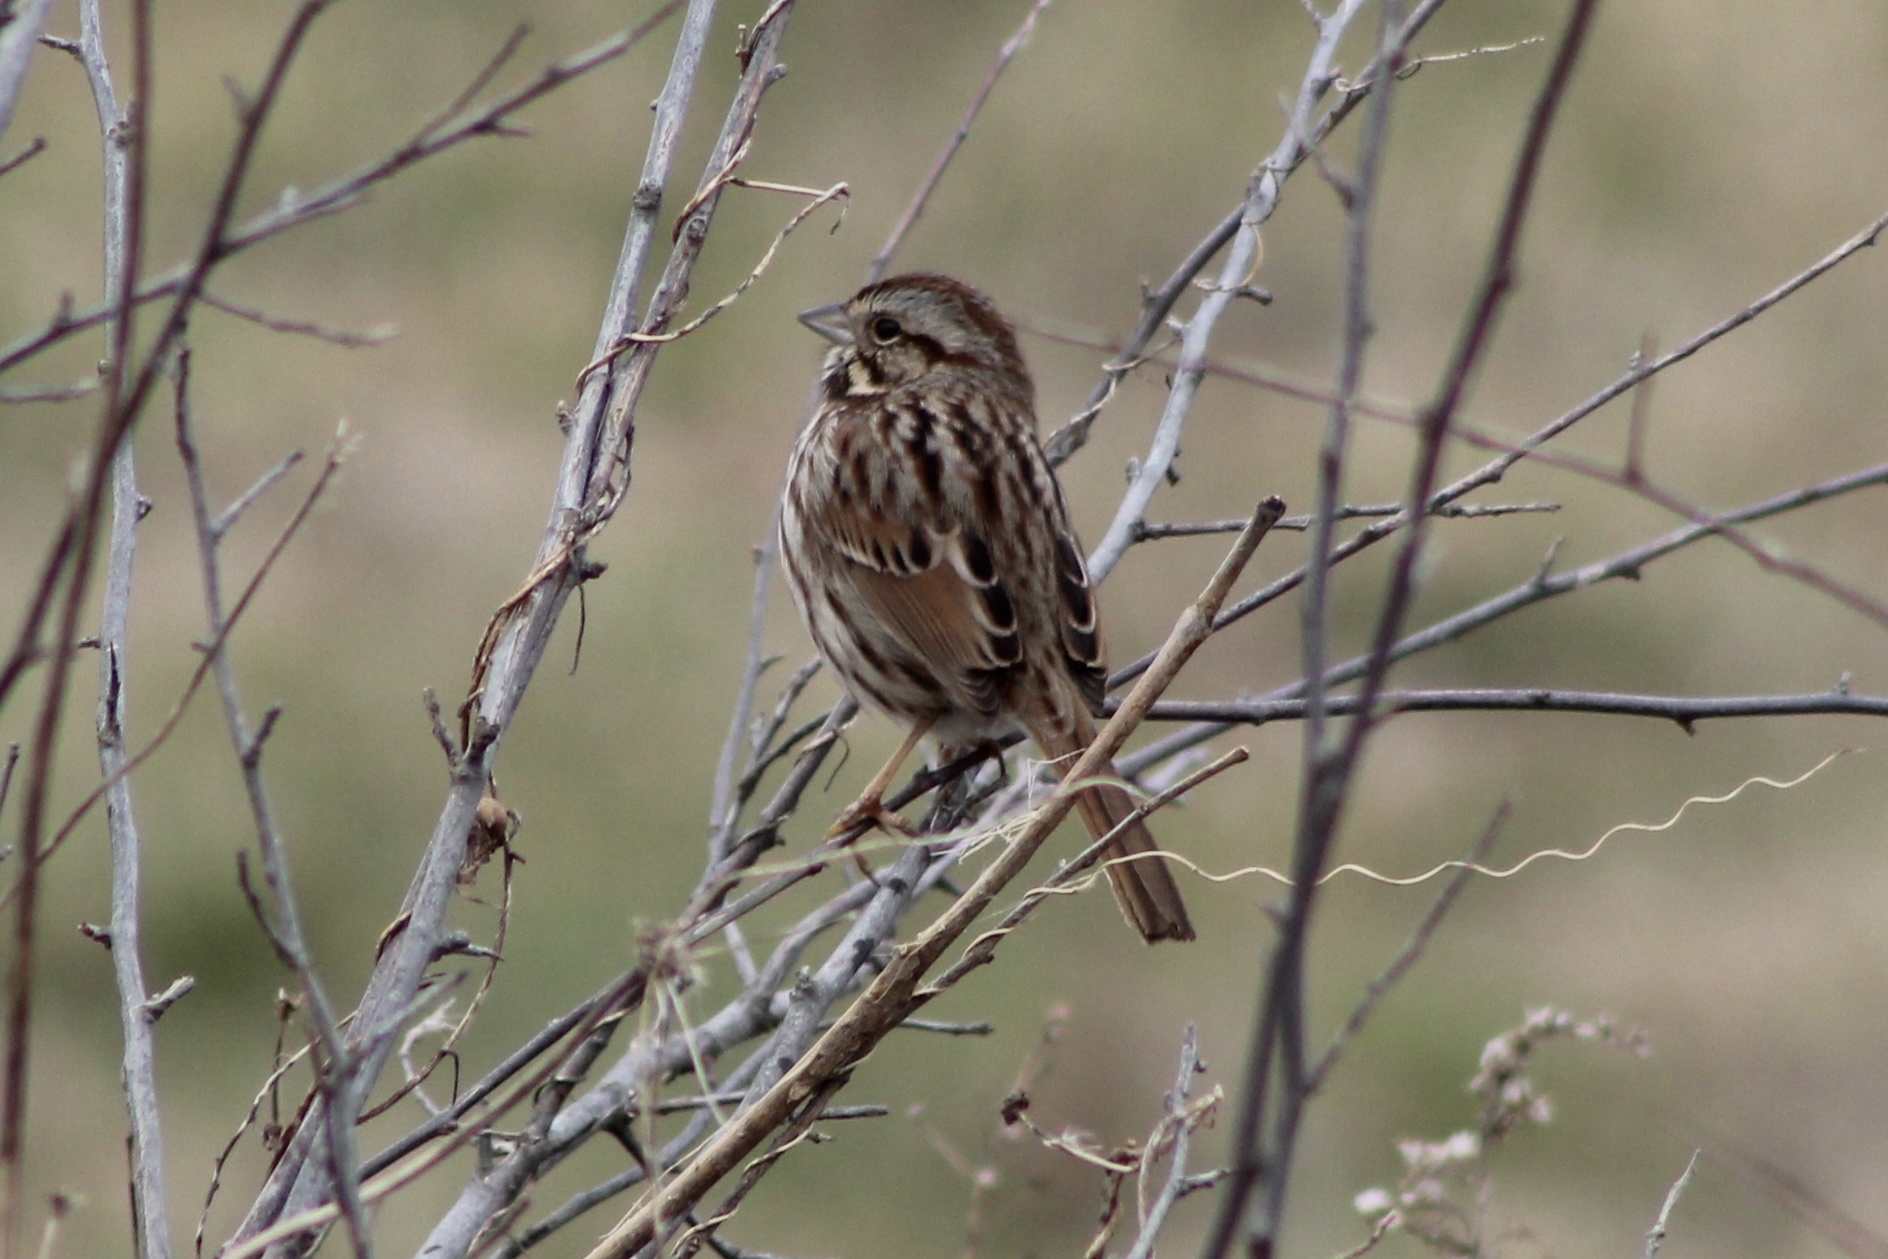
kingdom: Animalia
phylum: Chordata
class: Aves
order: Passeriformes
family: Passerellidae
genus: Melospiza
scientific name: Melospiza melodia
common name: Song sparrow
